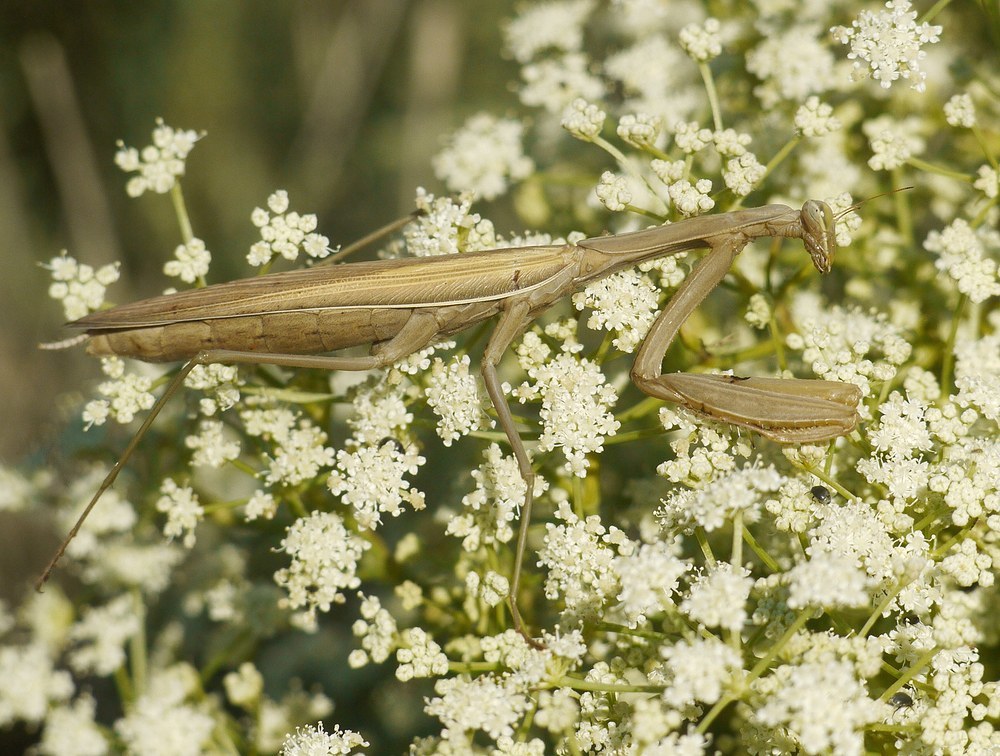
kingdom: Animalia
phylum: Arthropoda
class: Insecta
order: Mantodea
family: Mantidae
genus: Mantis
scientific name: Mantis religiosa
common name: Praying mantis
